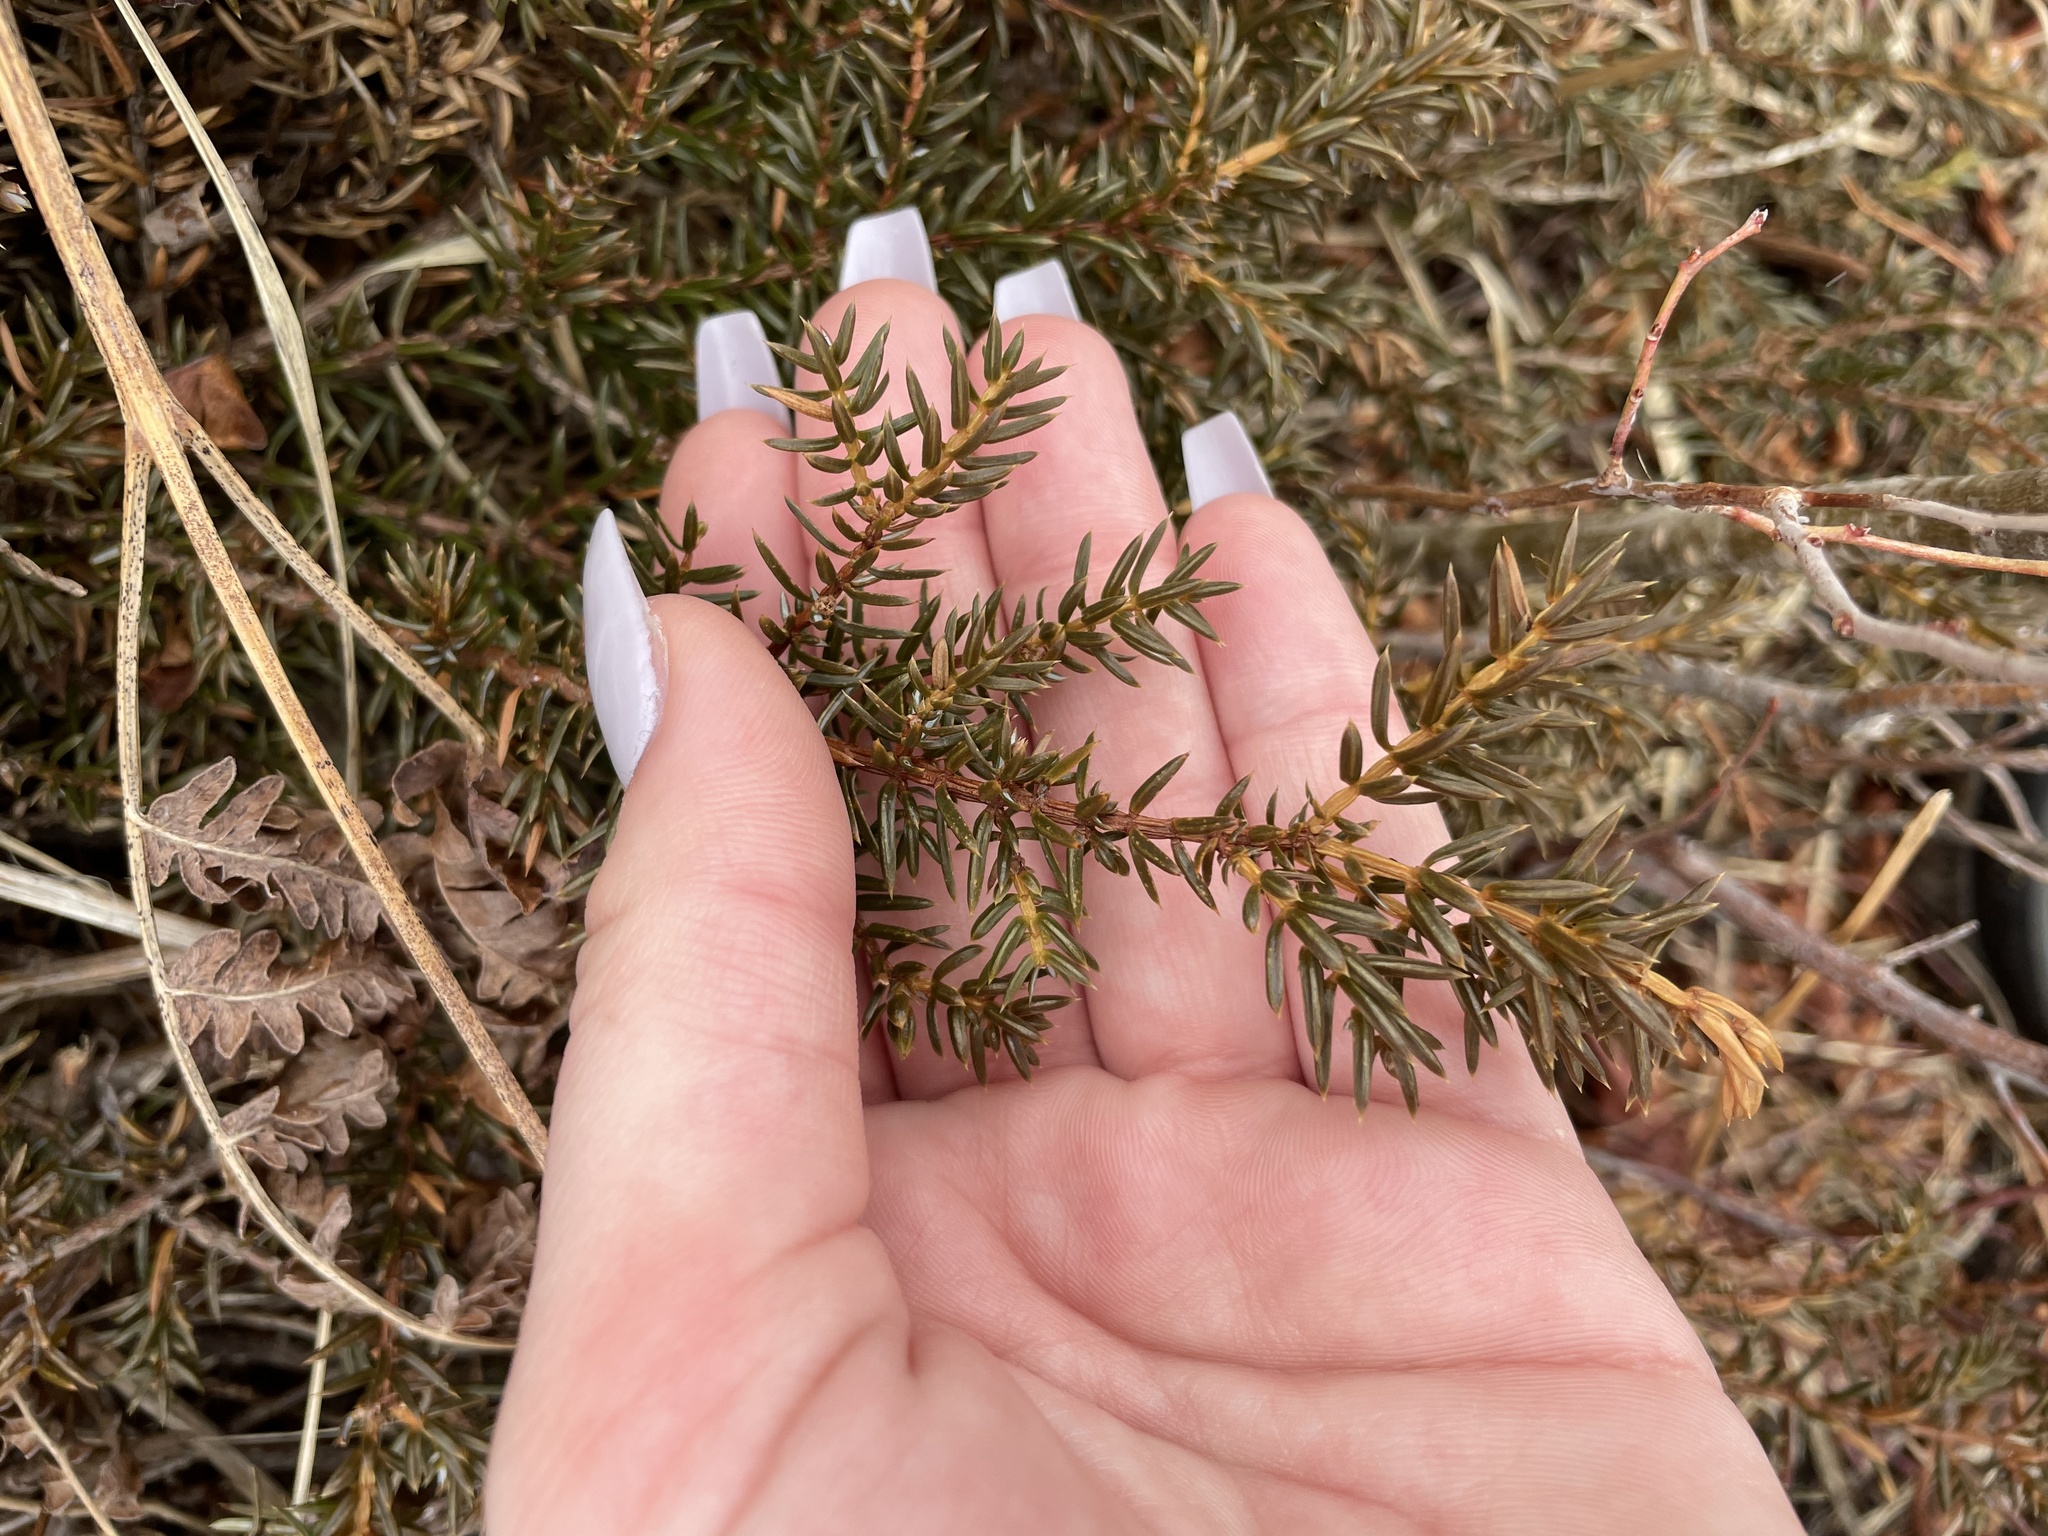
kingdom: Plantae
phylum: Tracheophyta
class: Pinopsida
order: Pinales
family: Cupressaceae
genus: Juniperus
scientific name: Juniperus communis
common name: Common juniper
